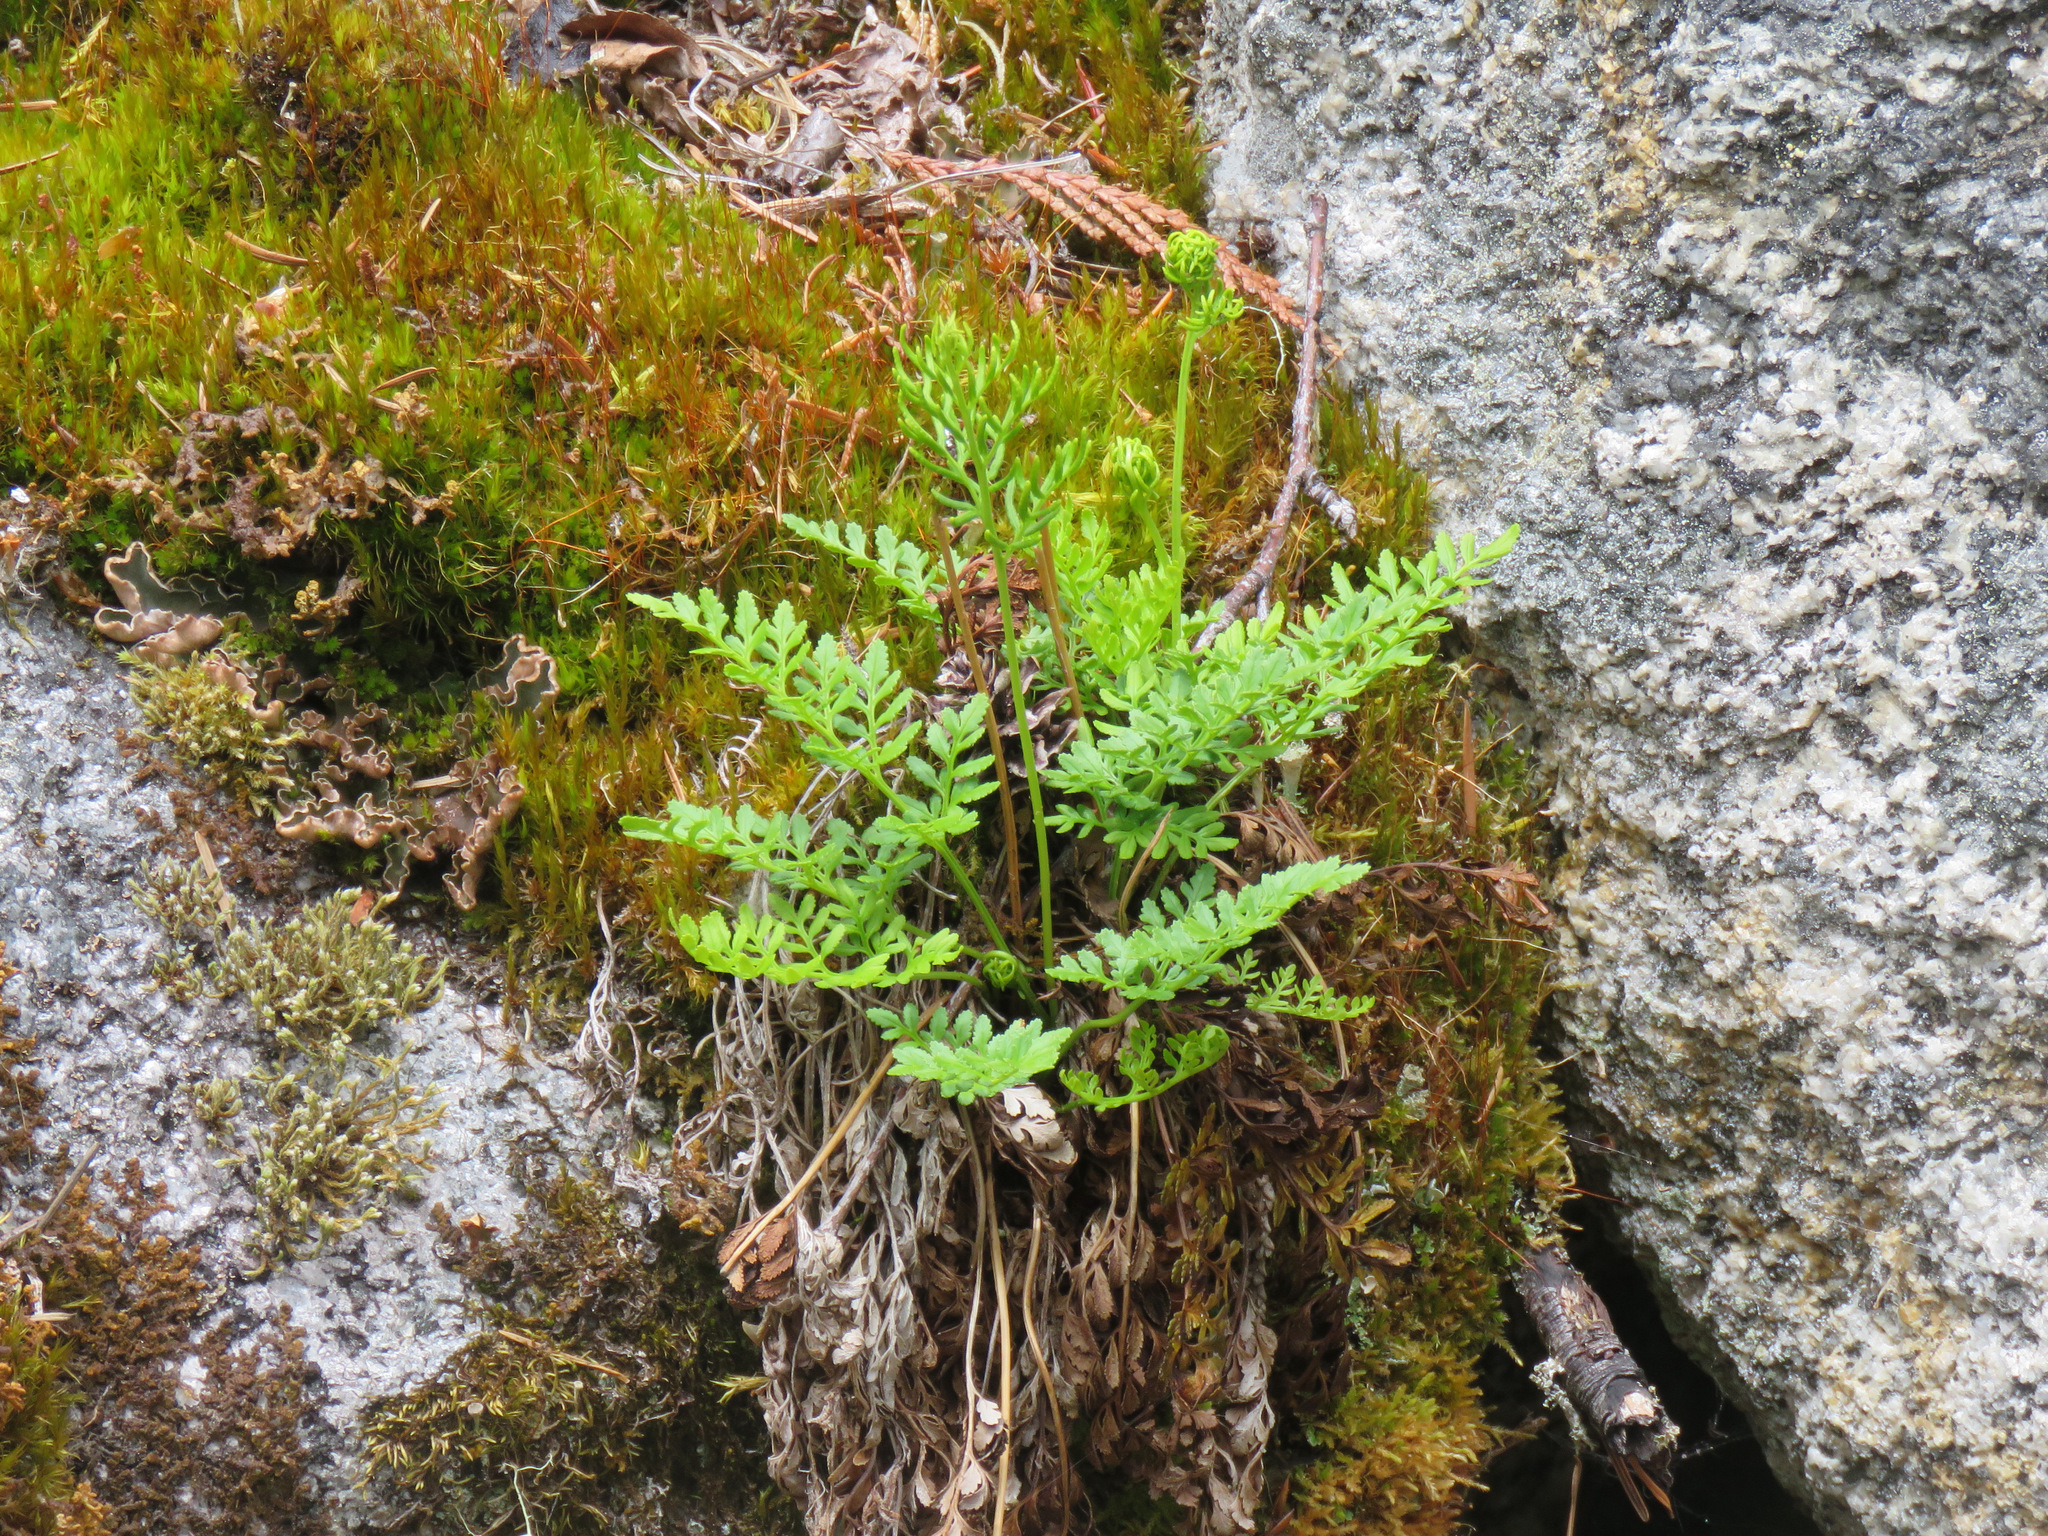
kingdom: Plantae
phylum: Tracheophyta
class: Polypodiopsida
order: Polypodiales
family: Pteridaceae
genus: Cryptogramma
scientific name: Cryptogramma acrostichoides
